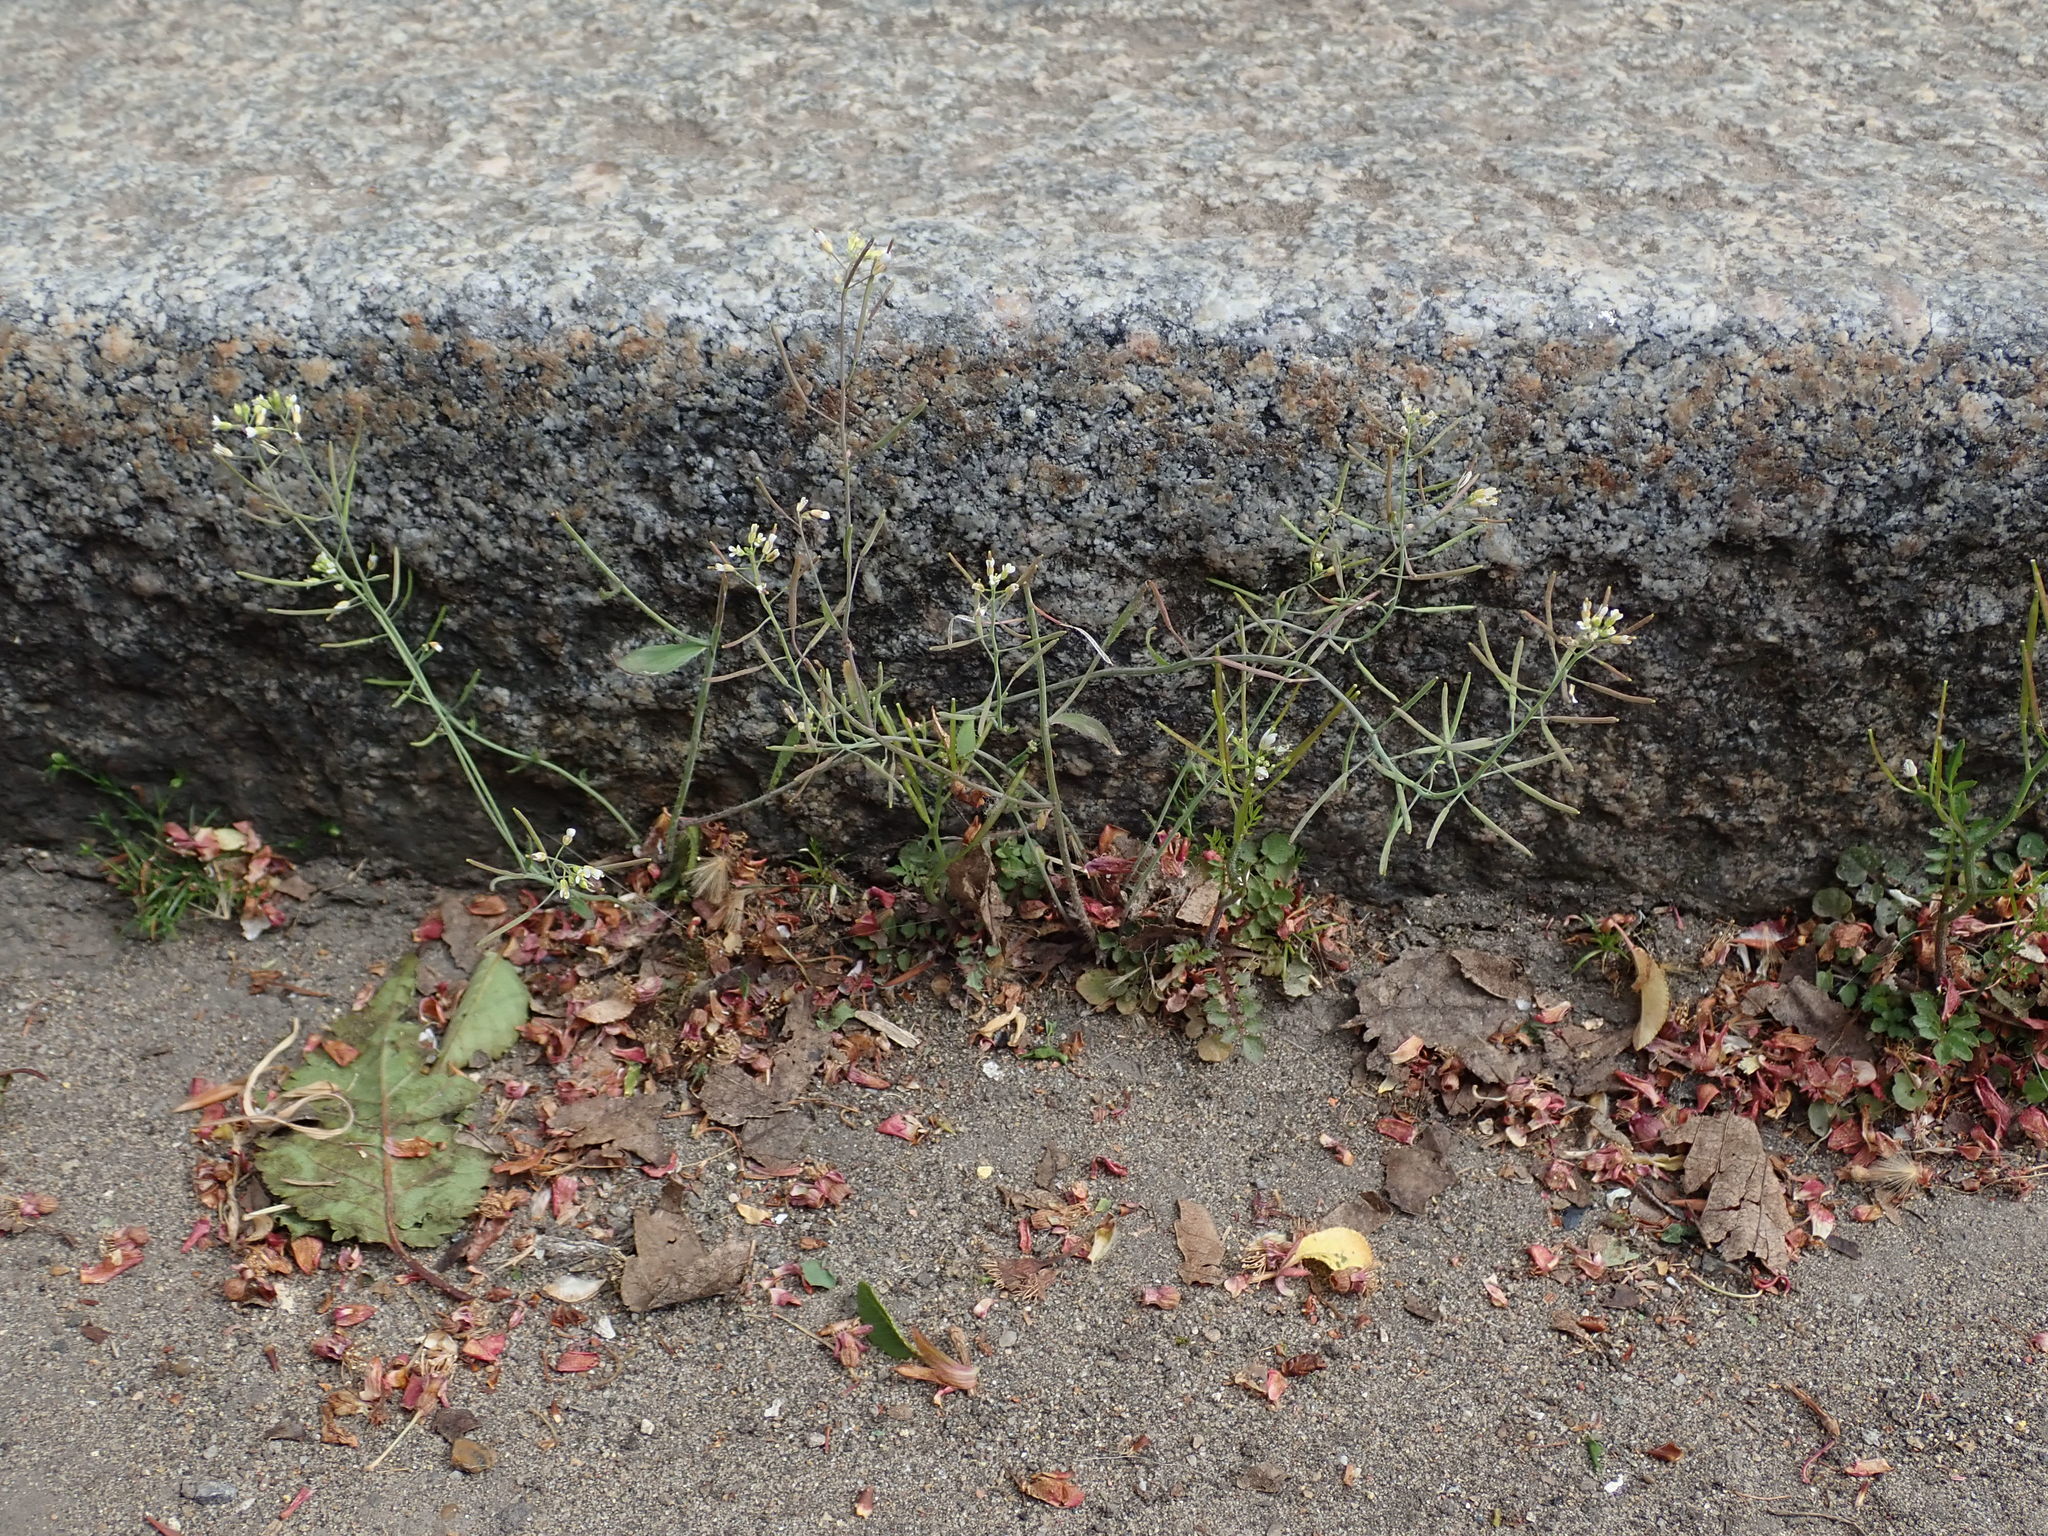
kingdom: Plantae
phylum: Tracheophyta
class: Magnoliopsida
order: Brassicales
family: Brassicaceae
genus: Arabidopsis
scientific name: Arabidopsis thaliana
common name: Thale cress
